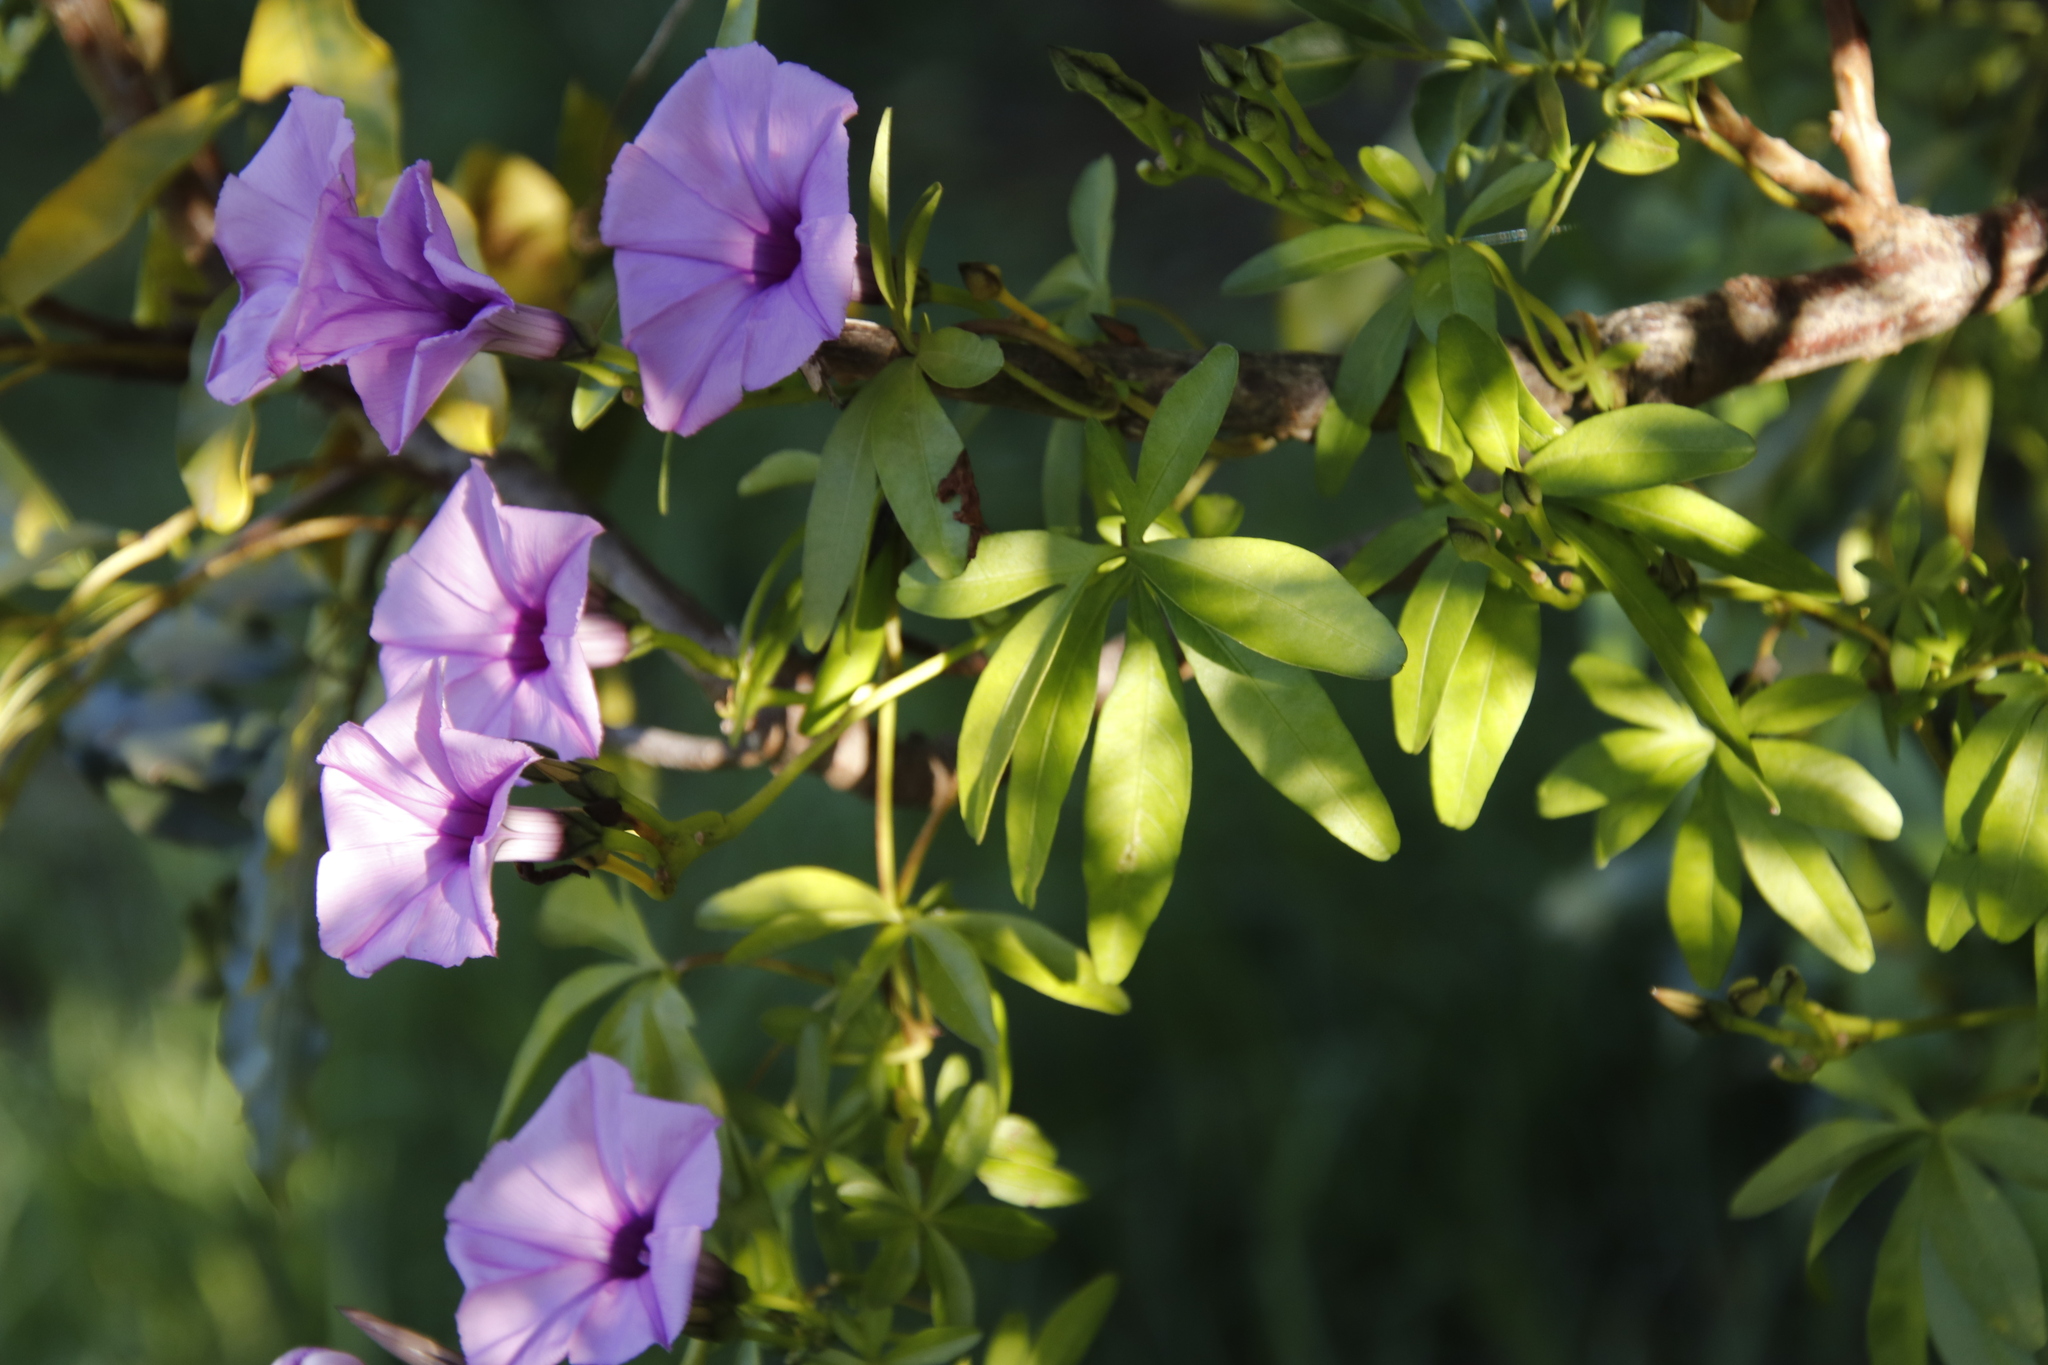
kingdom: Plantae
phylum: Tracheophyta
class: Magnoliopsida
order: Solanales
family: Convolvulaceae
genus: Ipomoea
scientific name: Ipomoea cairica
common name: Mile a minute vine
